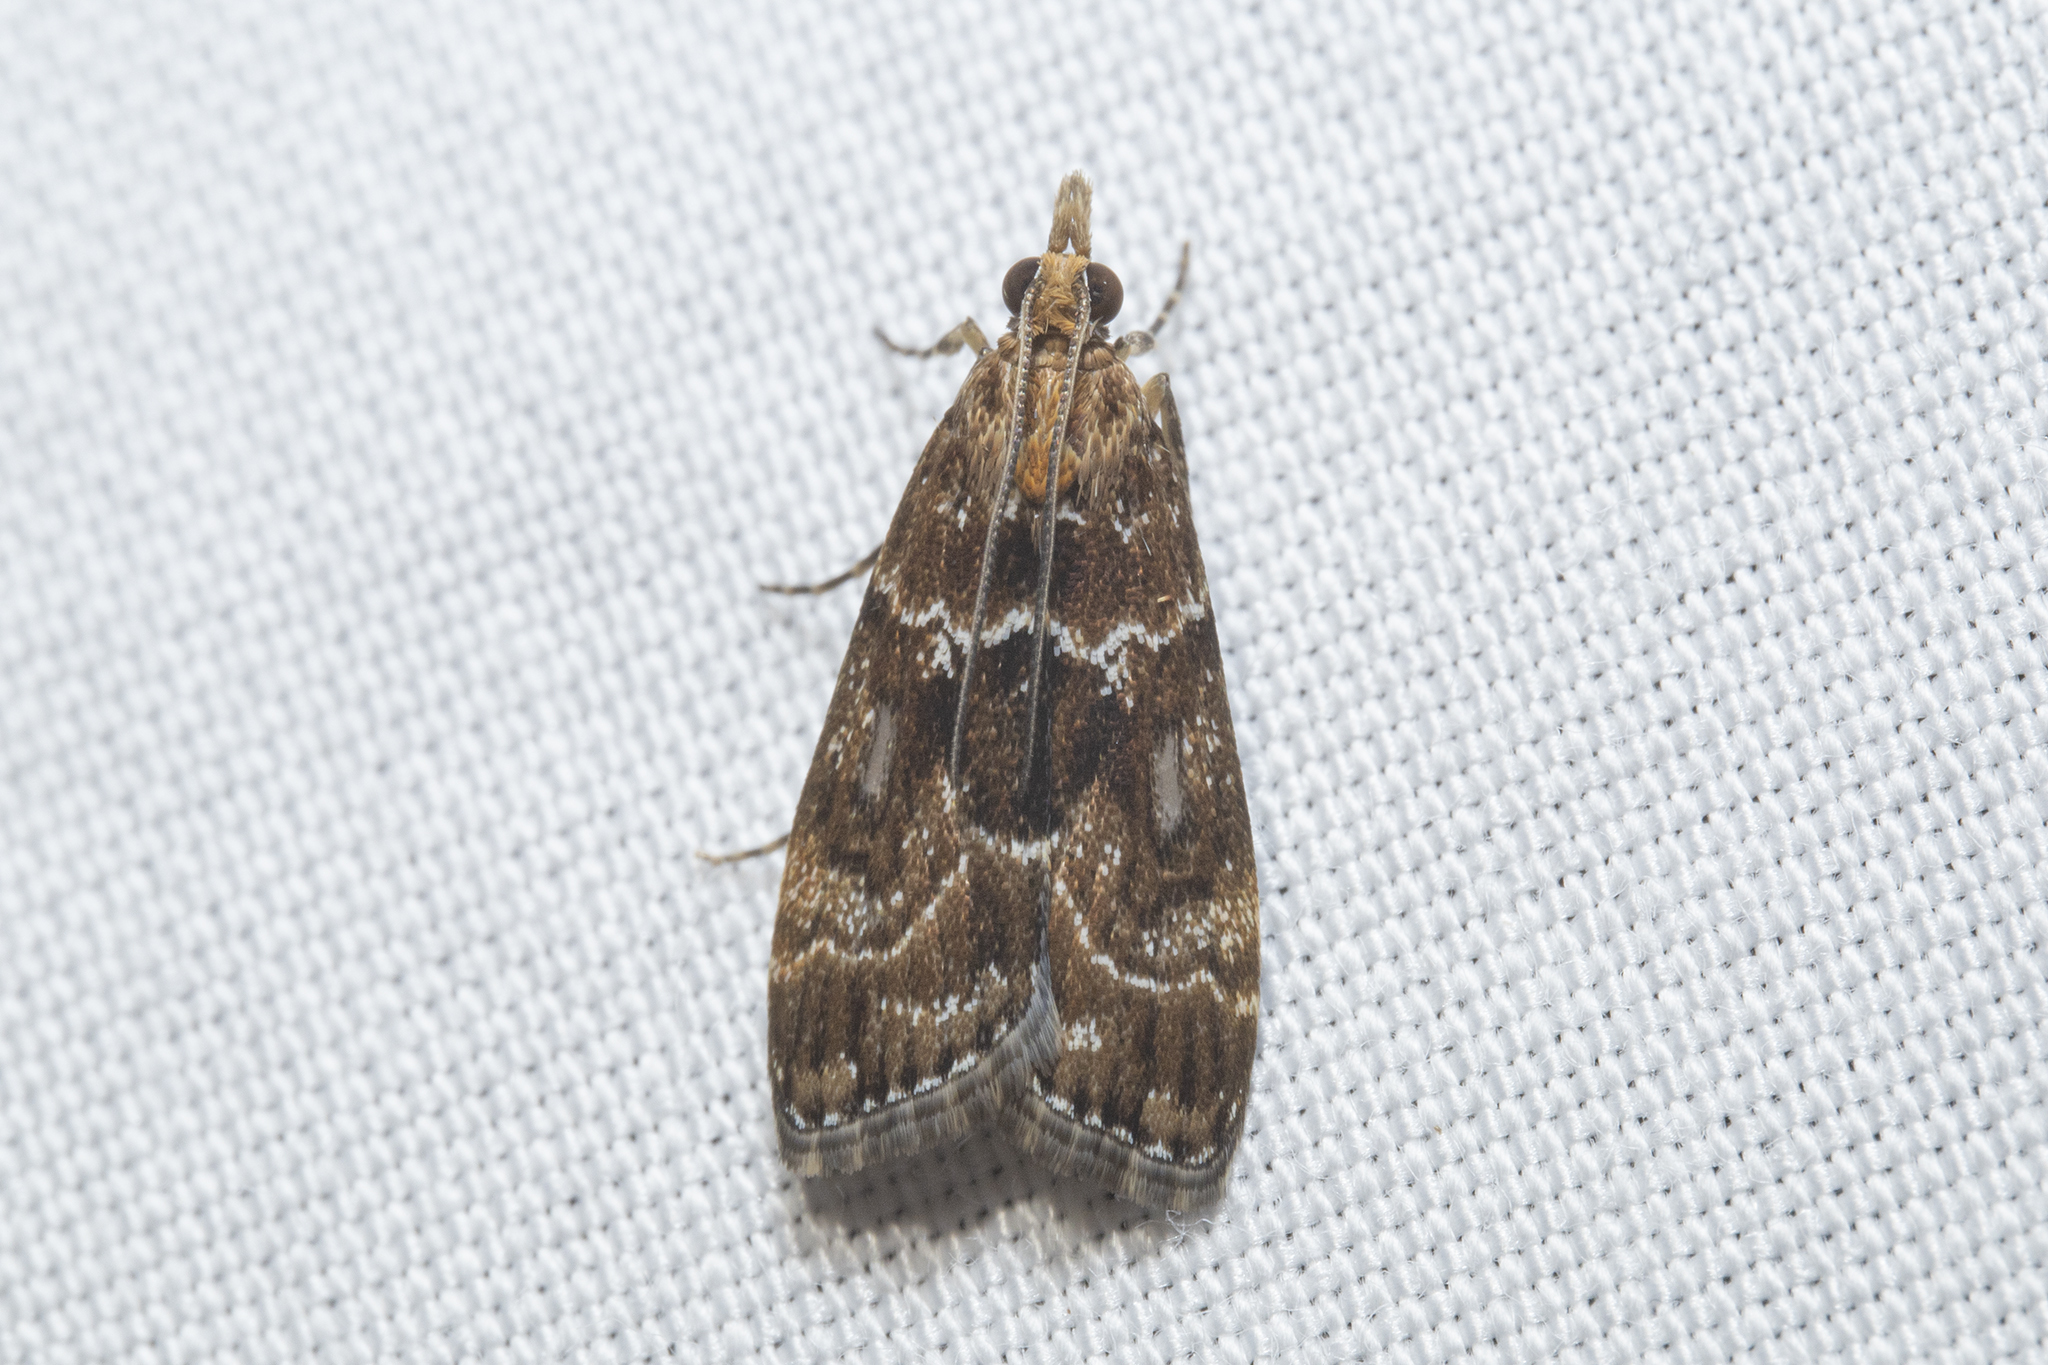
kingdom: Animalia
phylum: Arthropoda
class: Insecta
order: Lepidoptera
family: Crambidae
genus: Scoparia
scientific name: Scoparia animosa
